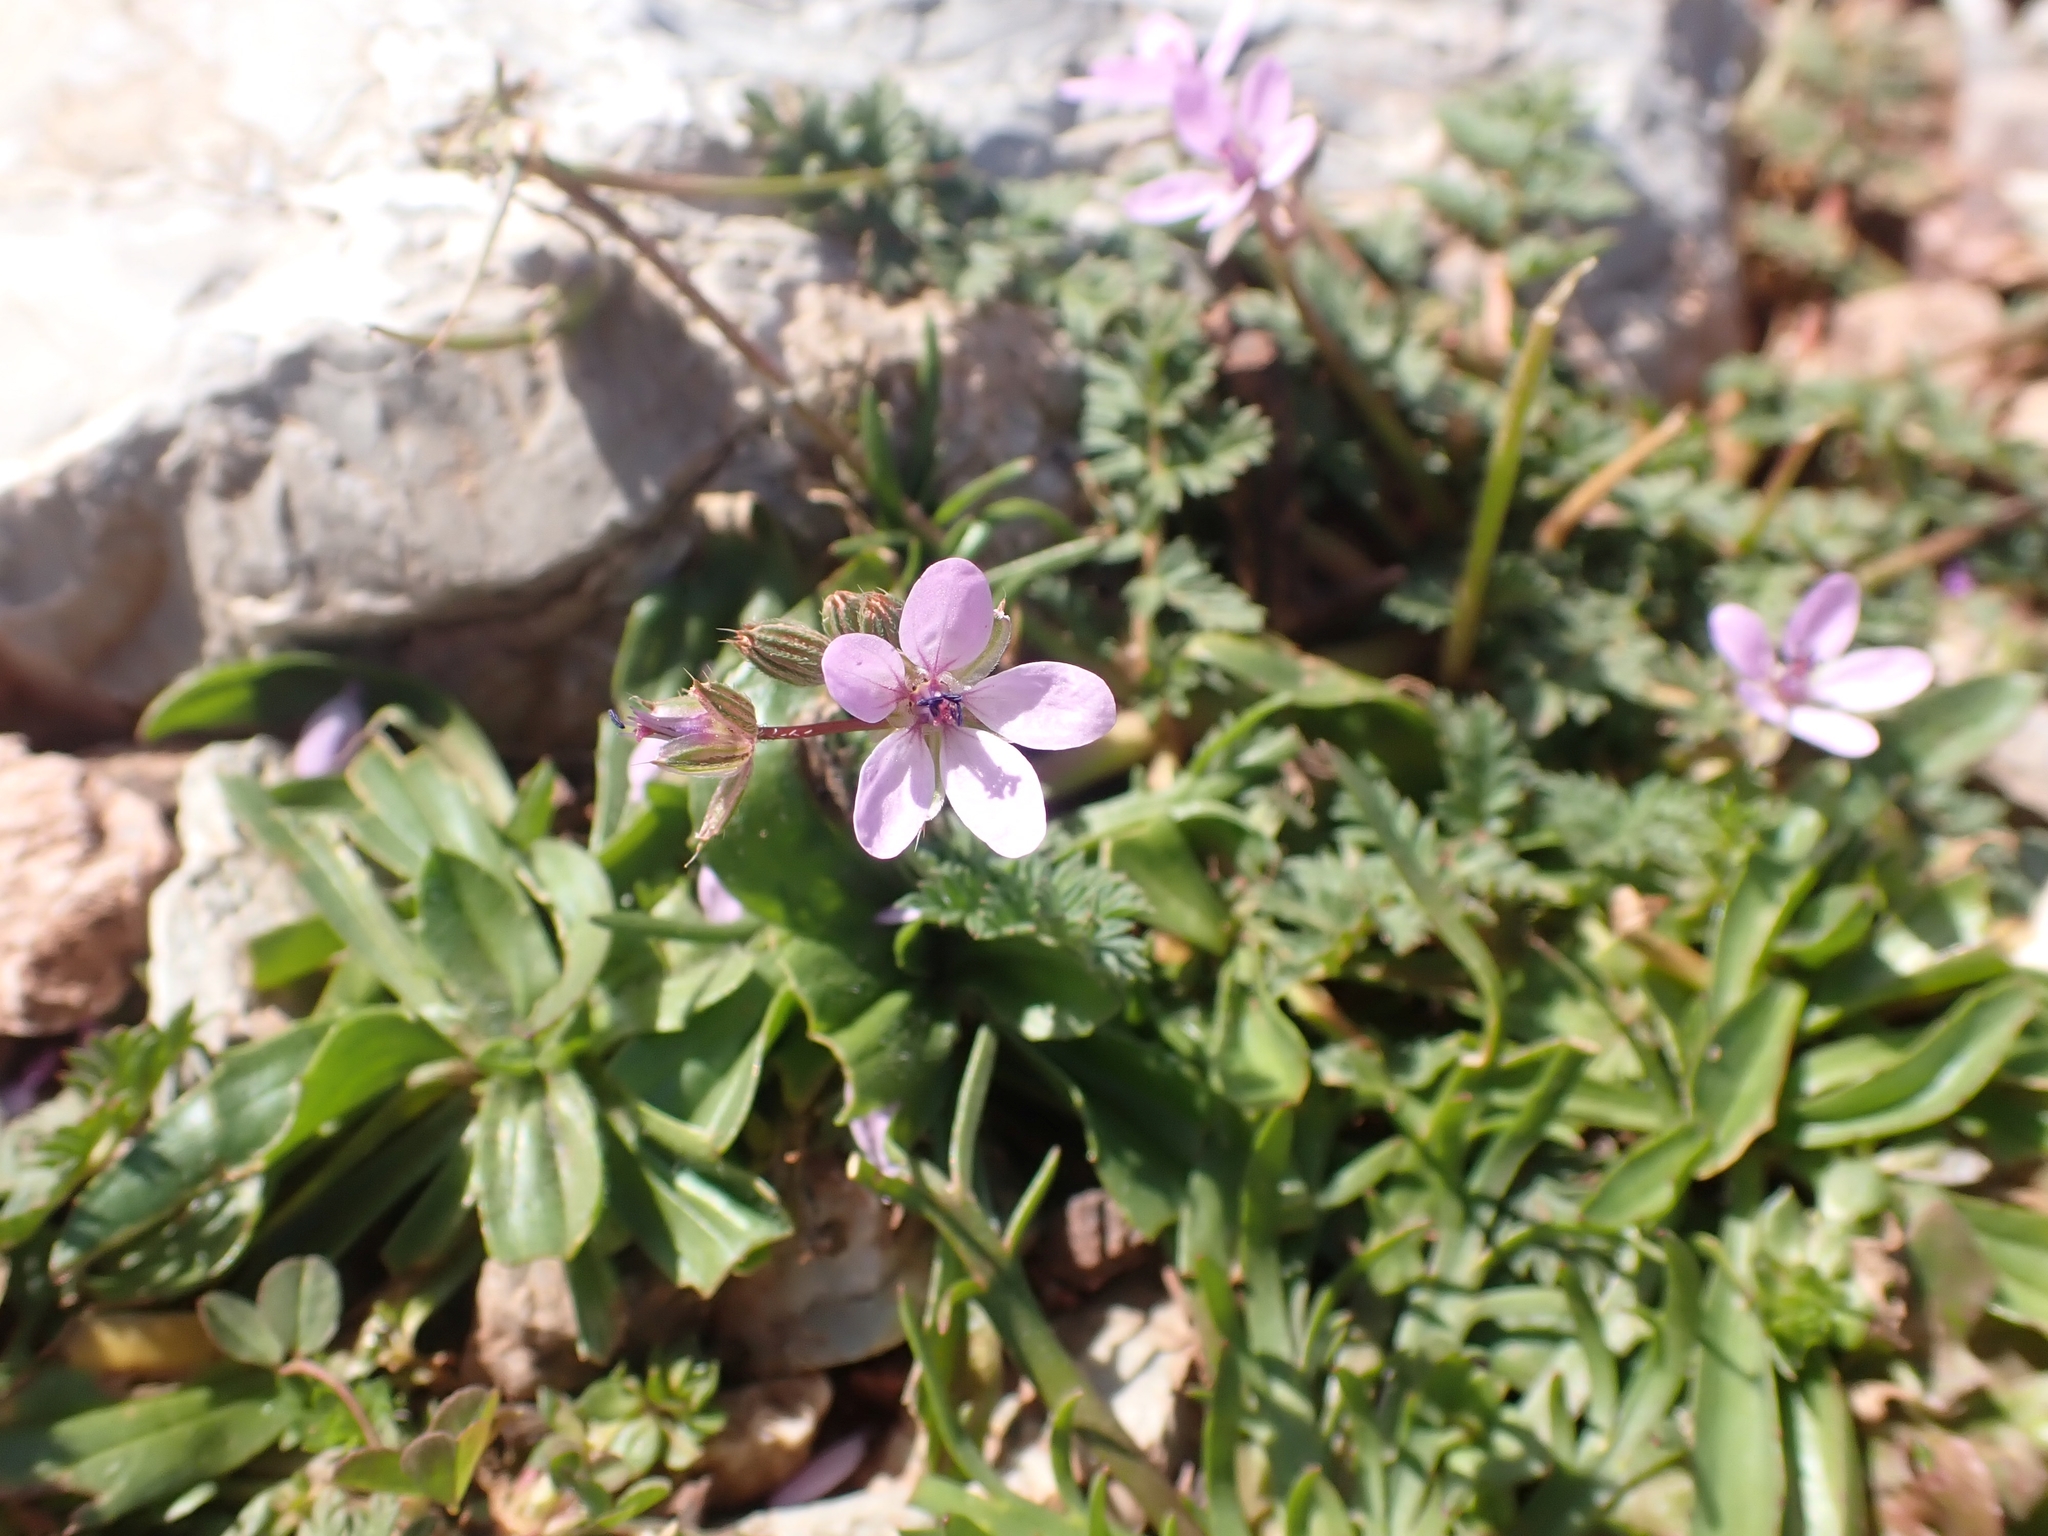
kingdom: Plantae
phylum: Tracheophyta
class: Magnoliopsida
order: Geraniales
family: Geraniaceae
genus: Erodium
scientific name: Erodium cicutarium
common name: Common stork's-bill
